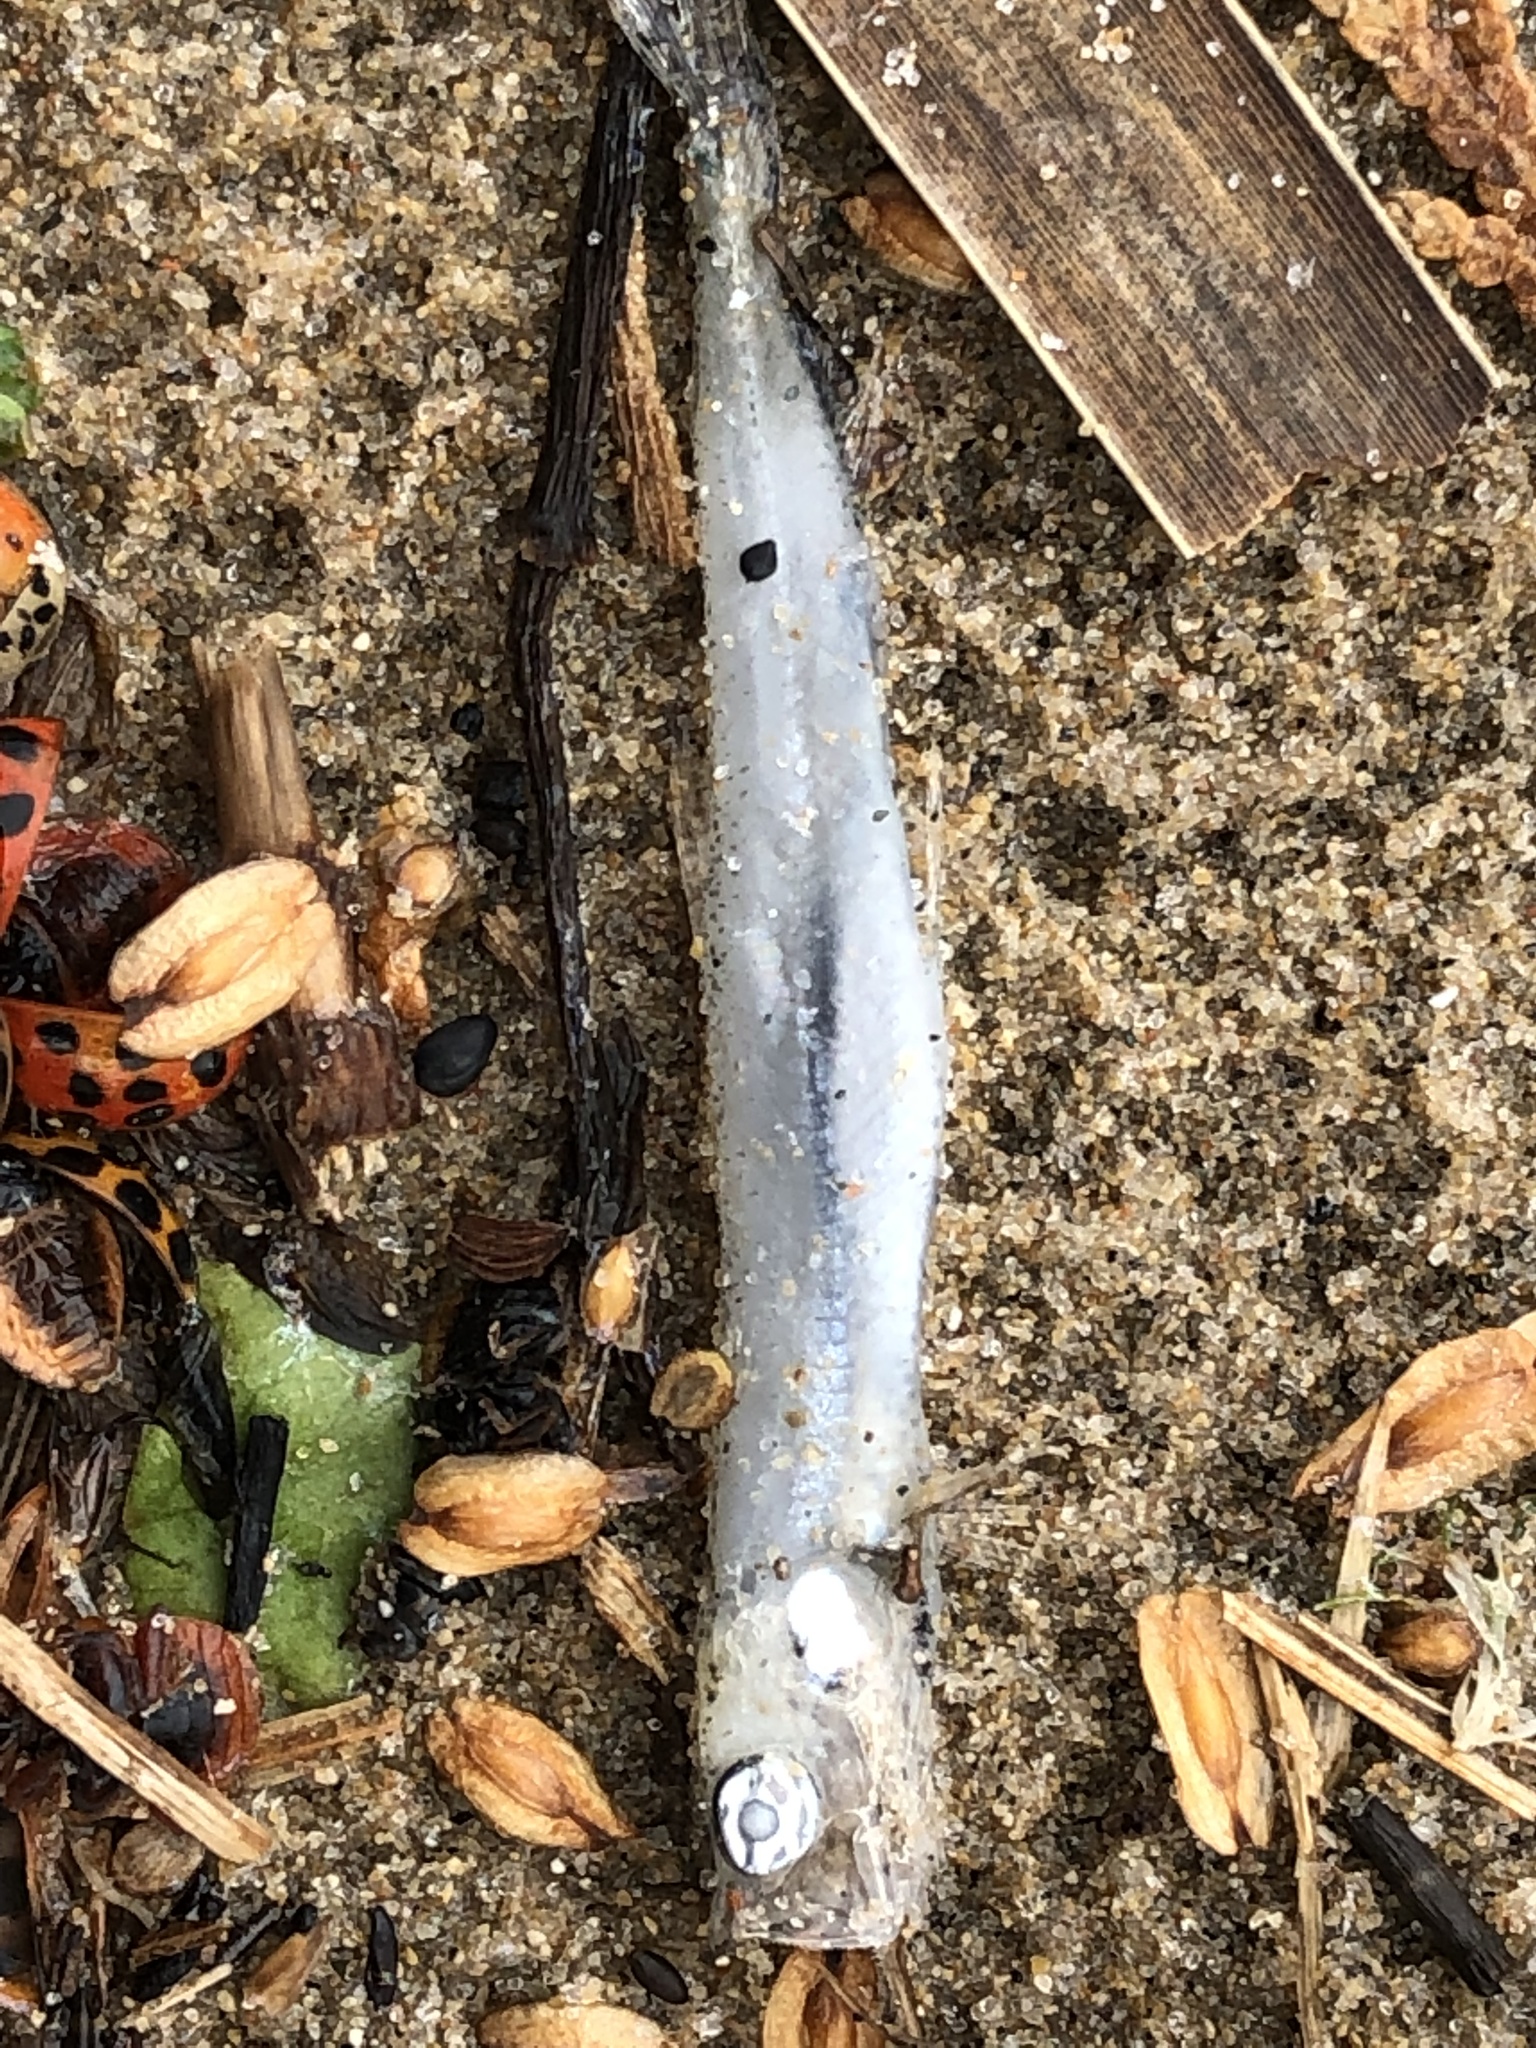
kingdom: Animalia
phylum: Chordata
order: Osmeriformes
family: Osmeridae
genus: Osmerus
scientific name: Osmerus mordax
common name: Rainbow smelt
